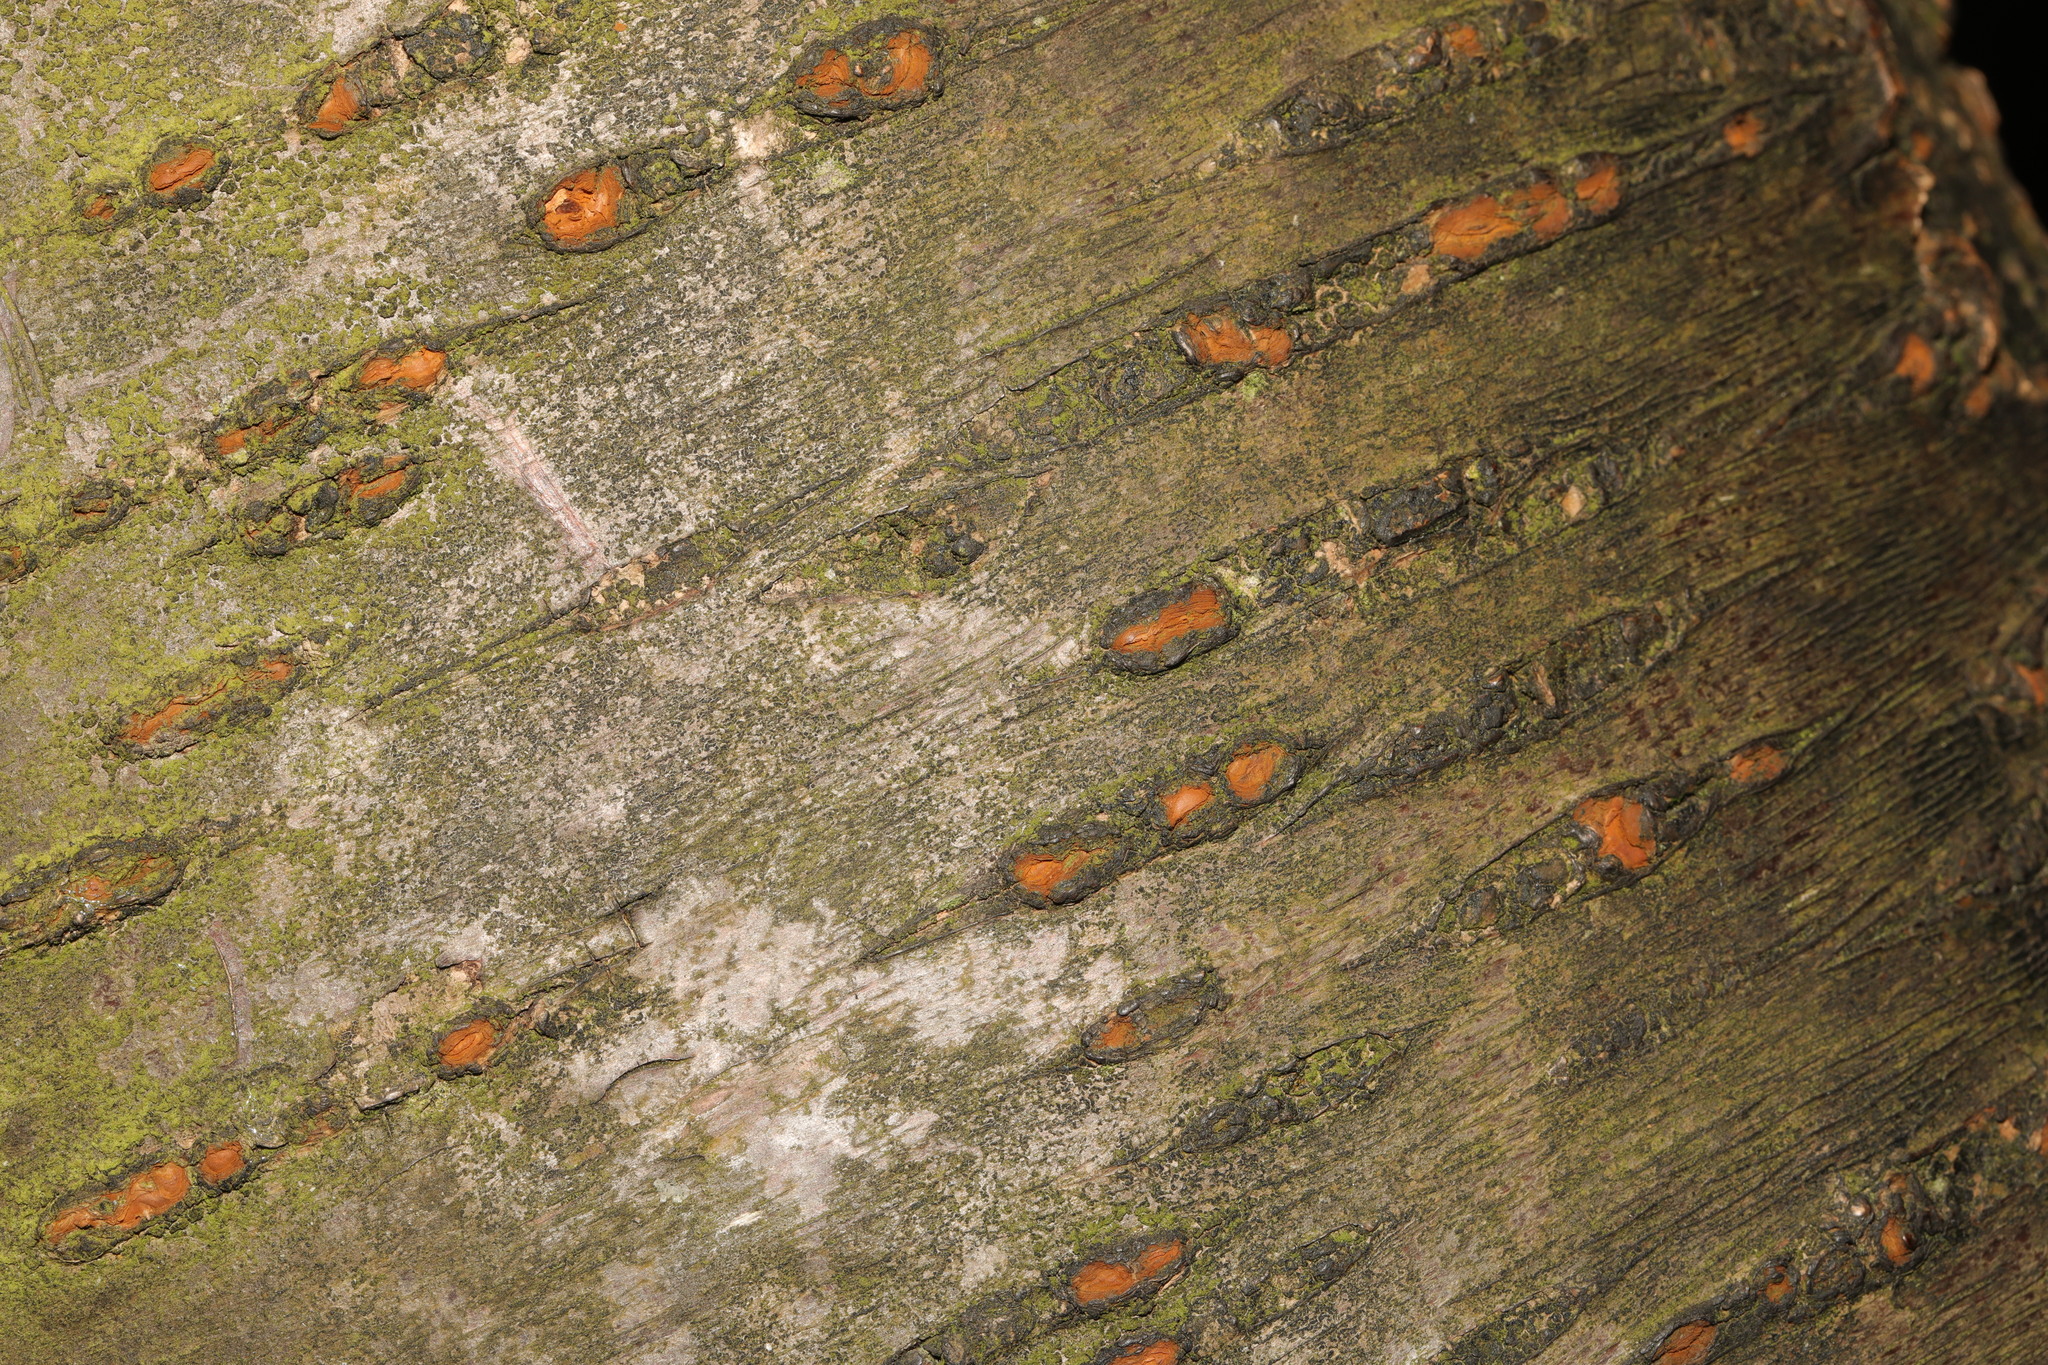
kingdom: Plantae
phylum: Tracheophyta
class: Magnoliopsida
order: Rosales
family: Rosaceae
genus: Prunus
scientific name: Prunus avium
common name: Sweet cherry
